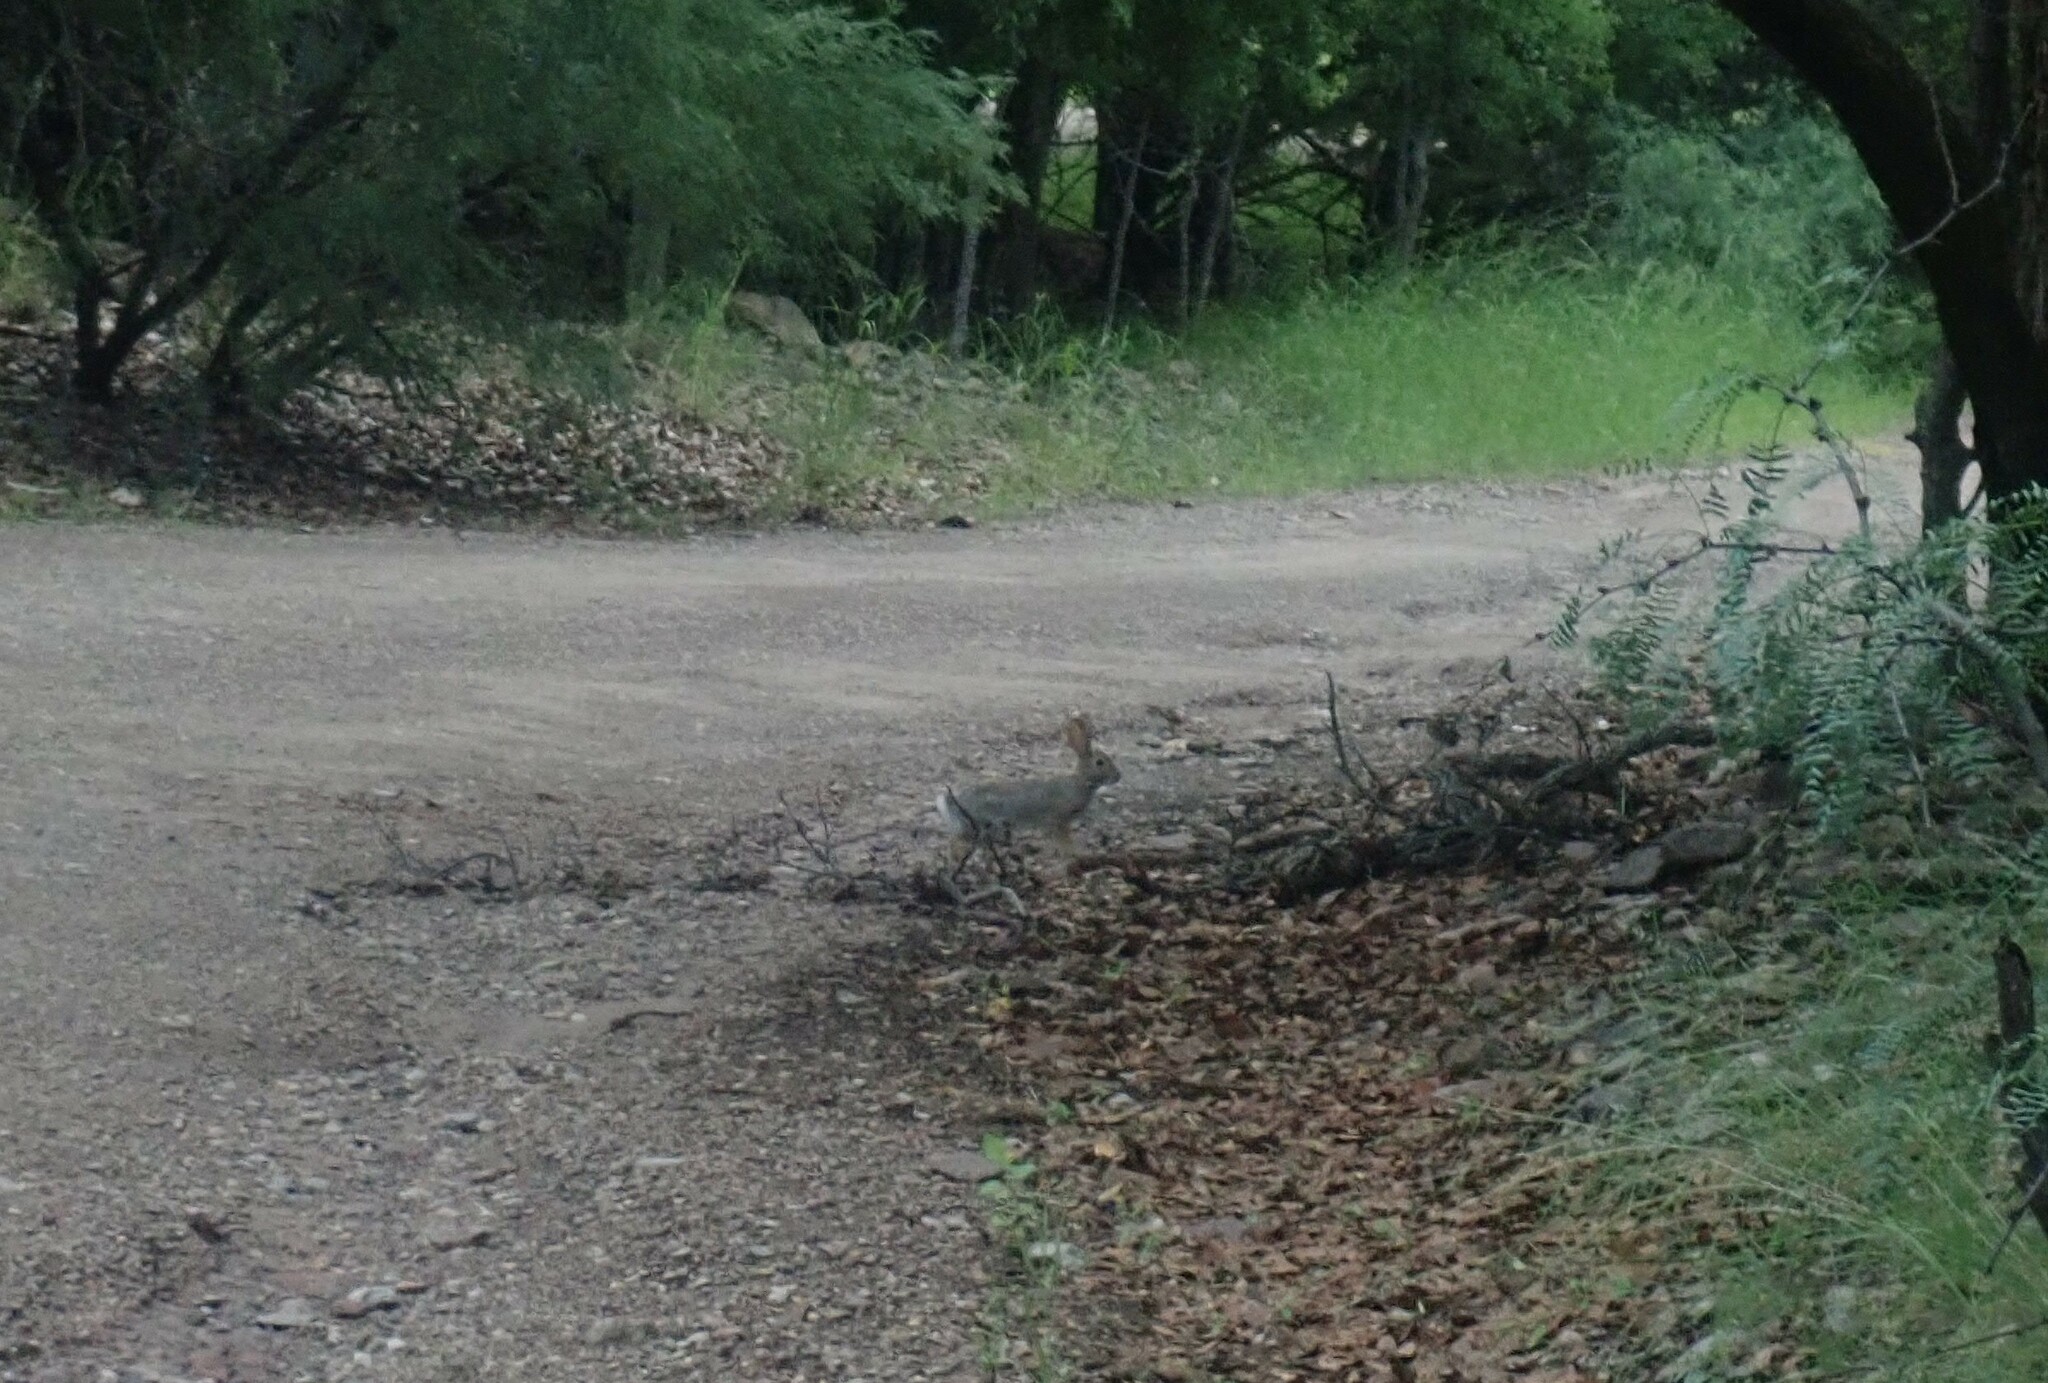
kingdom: Animalia
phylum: Chordata
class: Mammalia
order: Lagomorpha
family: Leporidae
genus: Sylvilagus
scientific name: Sylvilagus
